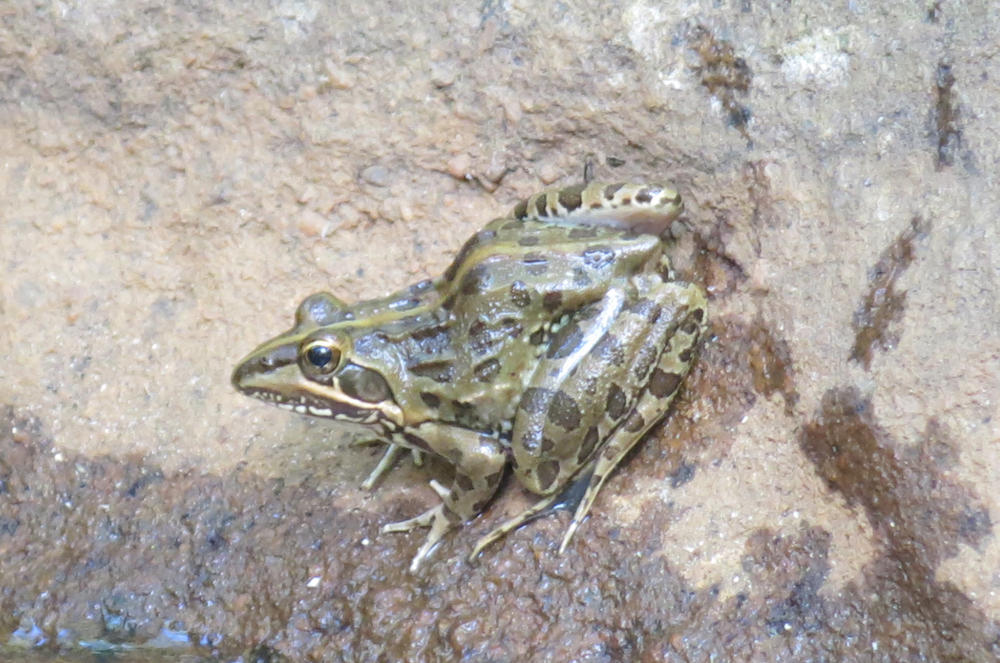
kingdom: Animalia
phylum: Chordata
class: Amphibia
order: Anura
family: Pyxicephalidae
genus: Amietia
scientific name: Amietia delalandii
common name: Delalande's river frog
